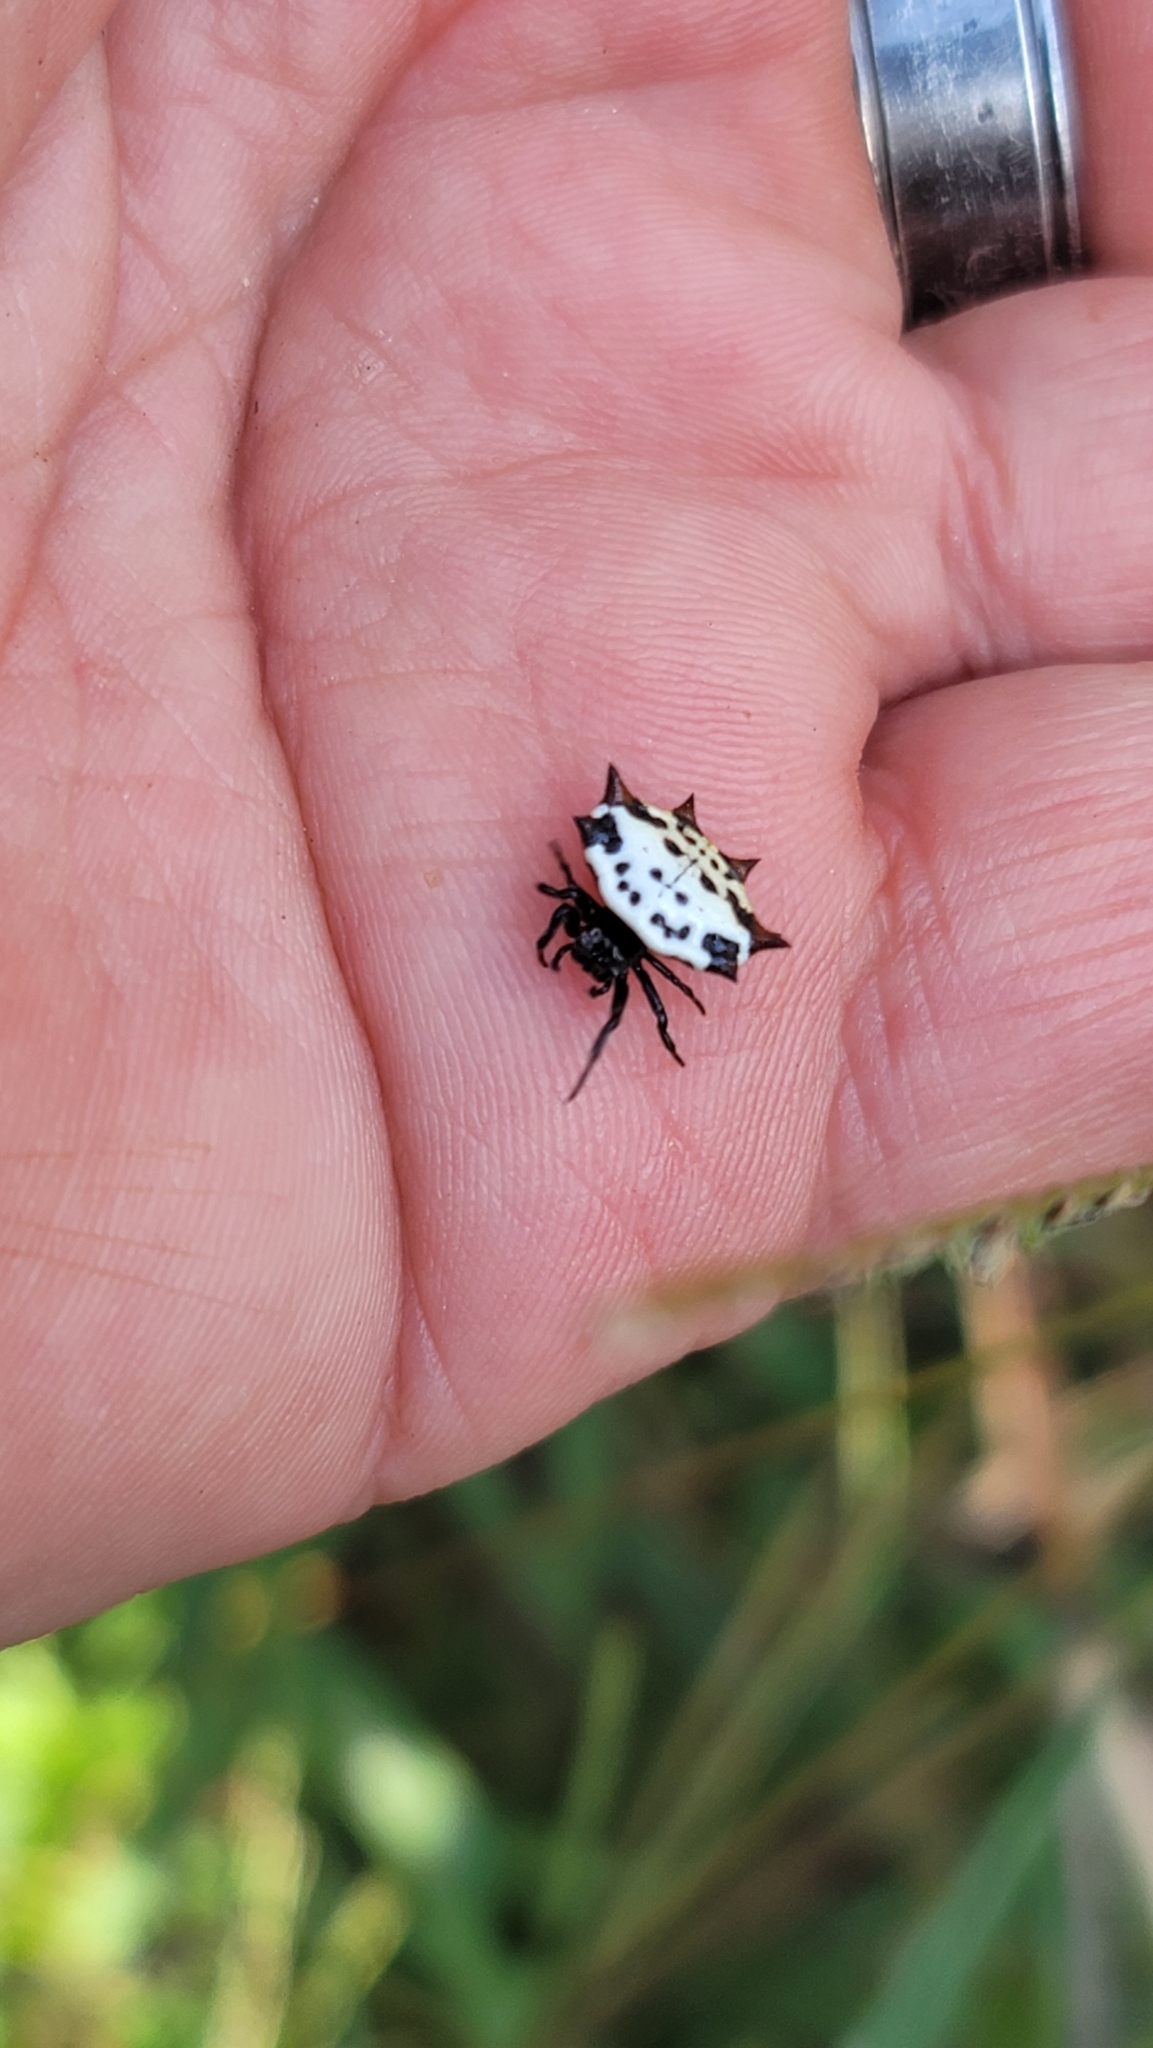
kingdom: Animalia
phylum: Arthropoda
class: Arachnida
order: Araneae
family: Araneidae
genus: Gasteracantha
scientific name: Gasteracantha cancriformis
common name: Orb weavers
